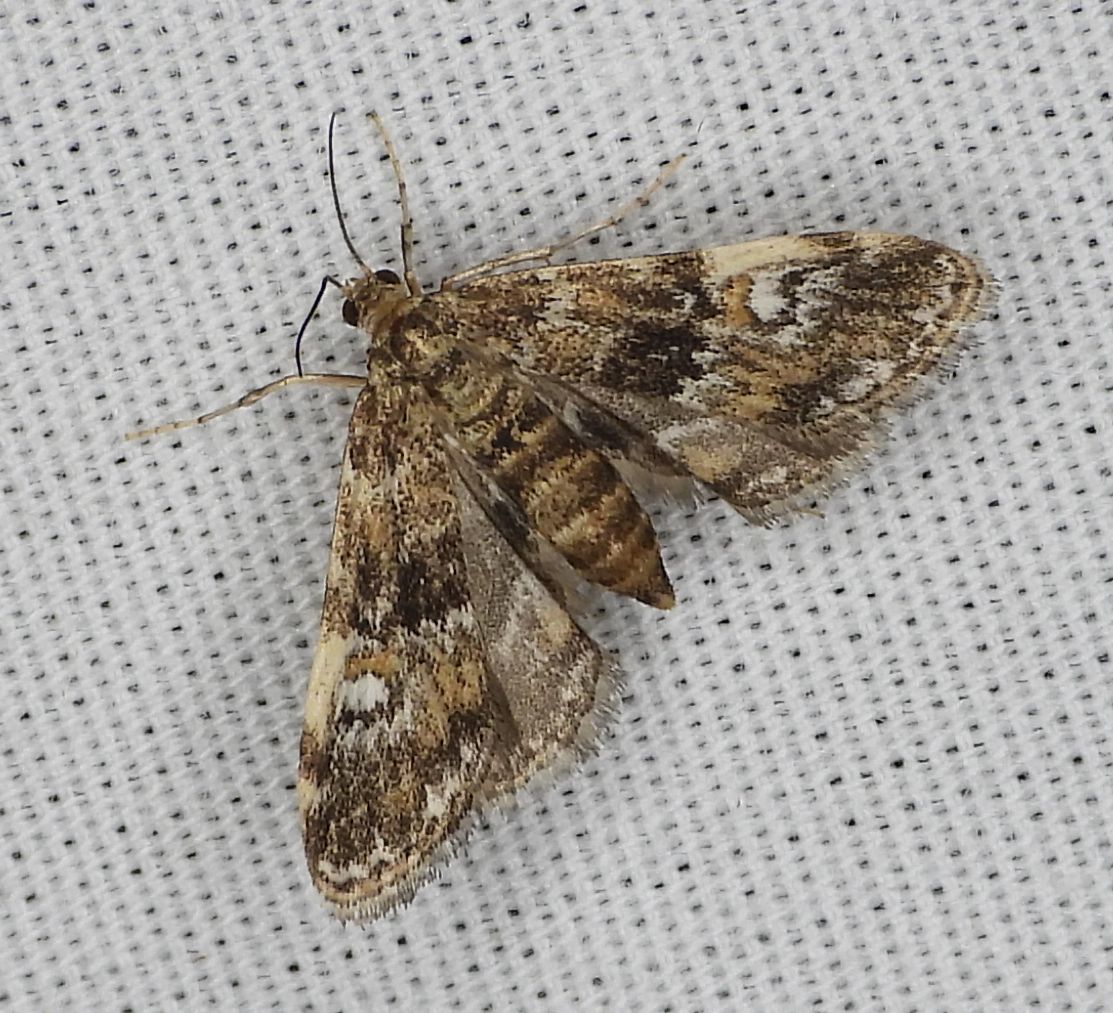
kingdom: Animalia
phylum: Arthropoda
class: Insecta
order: Lepidoptera
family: Crambidae
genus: Elophila
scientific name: Elophila obliteralis
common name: Waterlily leafcutter moth
